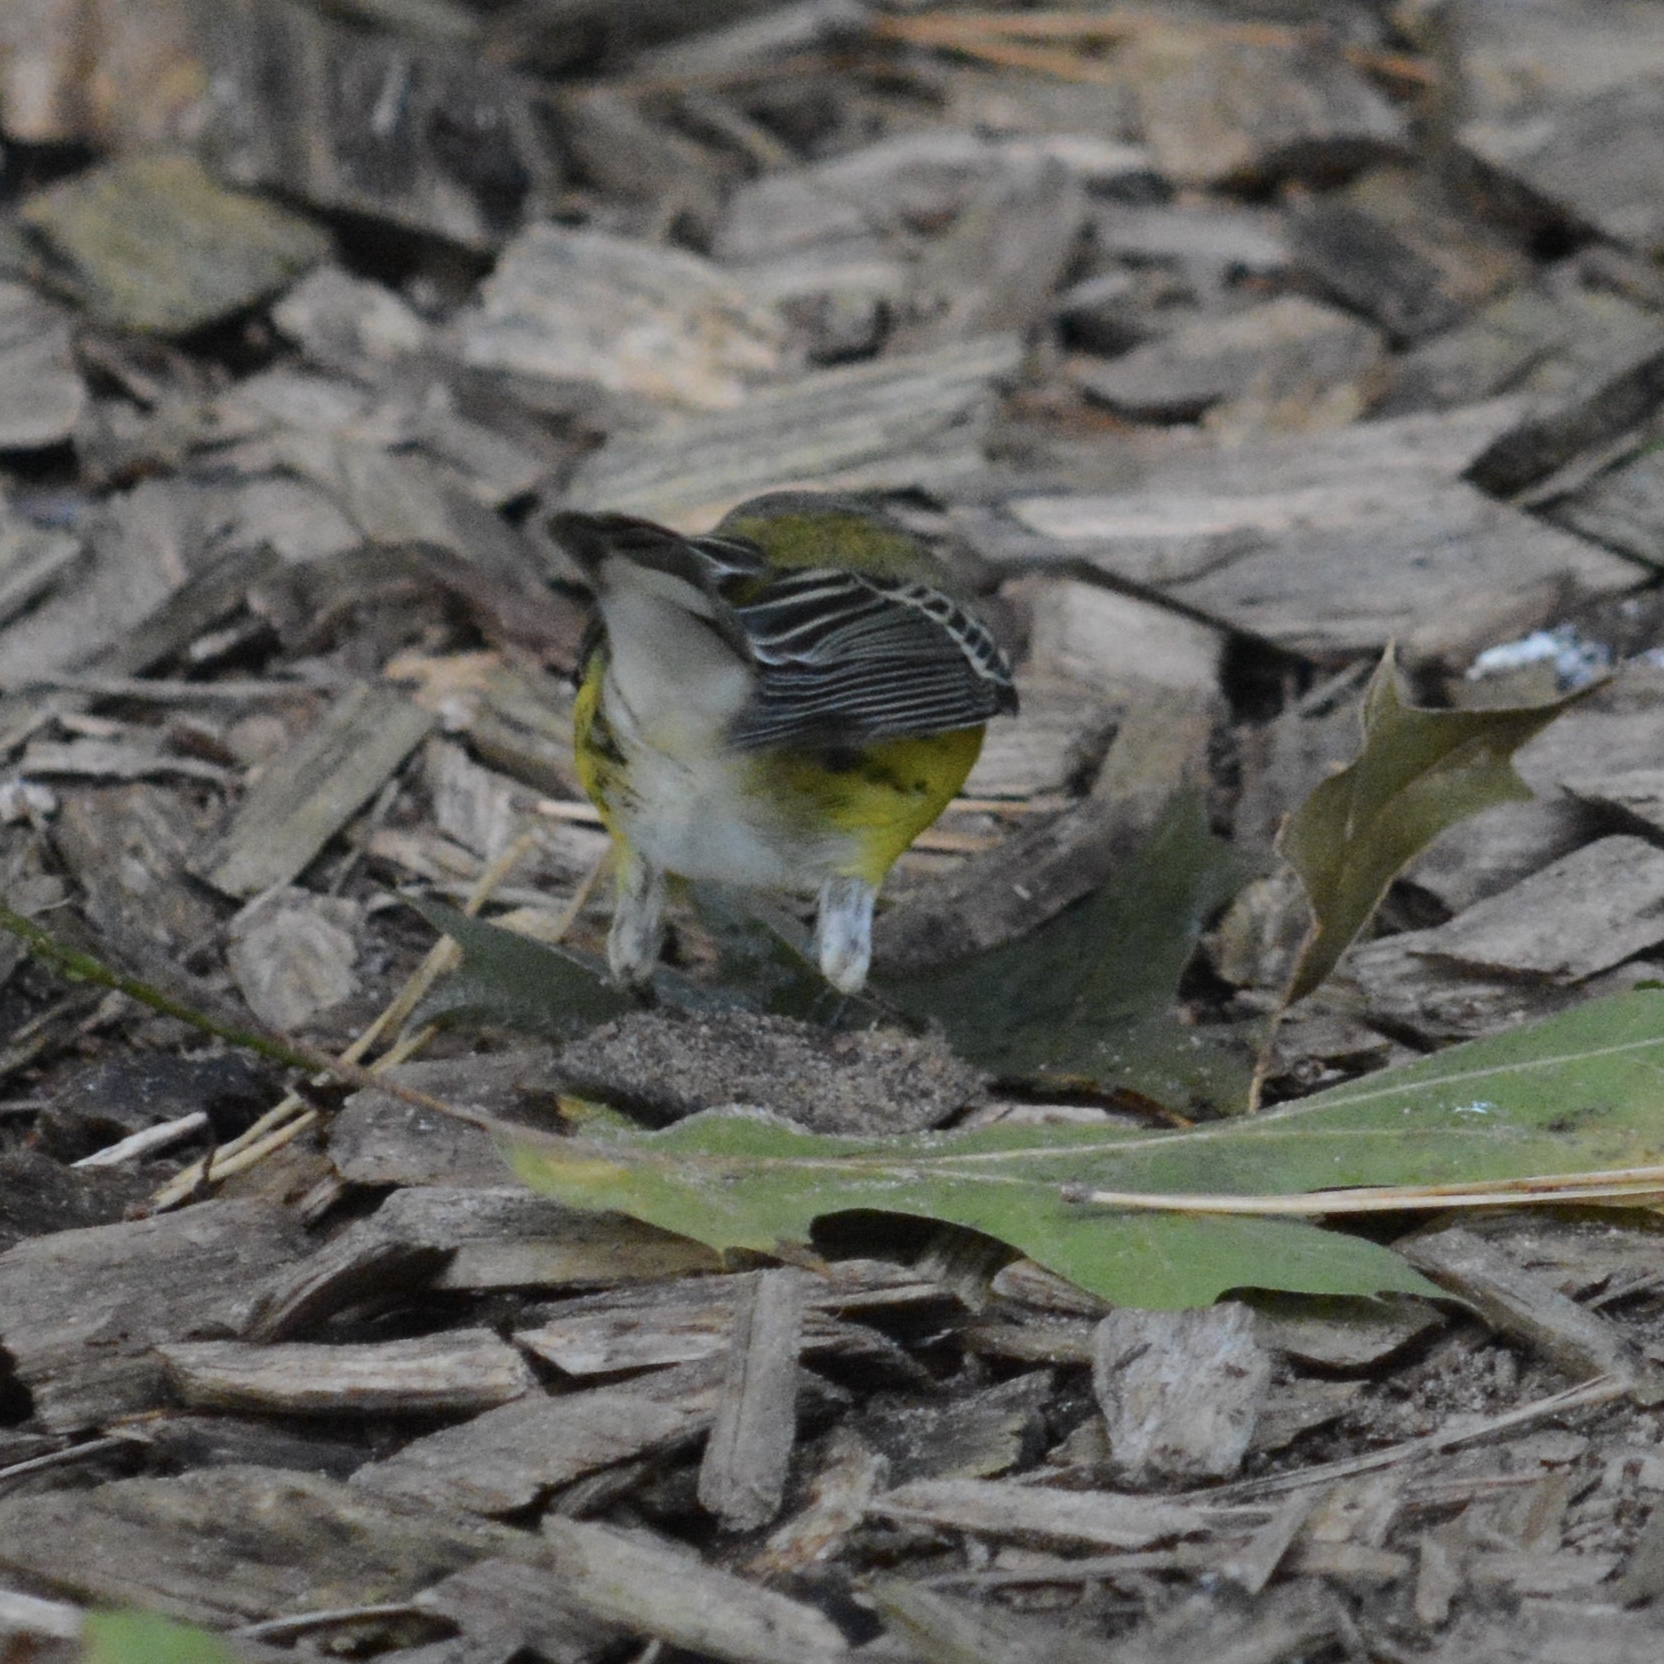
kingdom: Animalia
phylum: Chordata
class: Aves
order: Passeriformes
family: Parulidae
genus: Setophaga
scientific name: Setophaga magnolia
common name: Magnolia warbler
